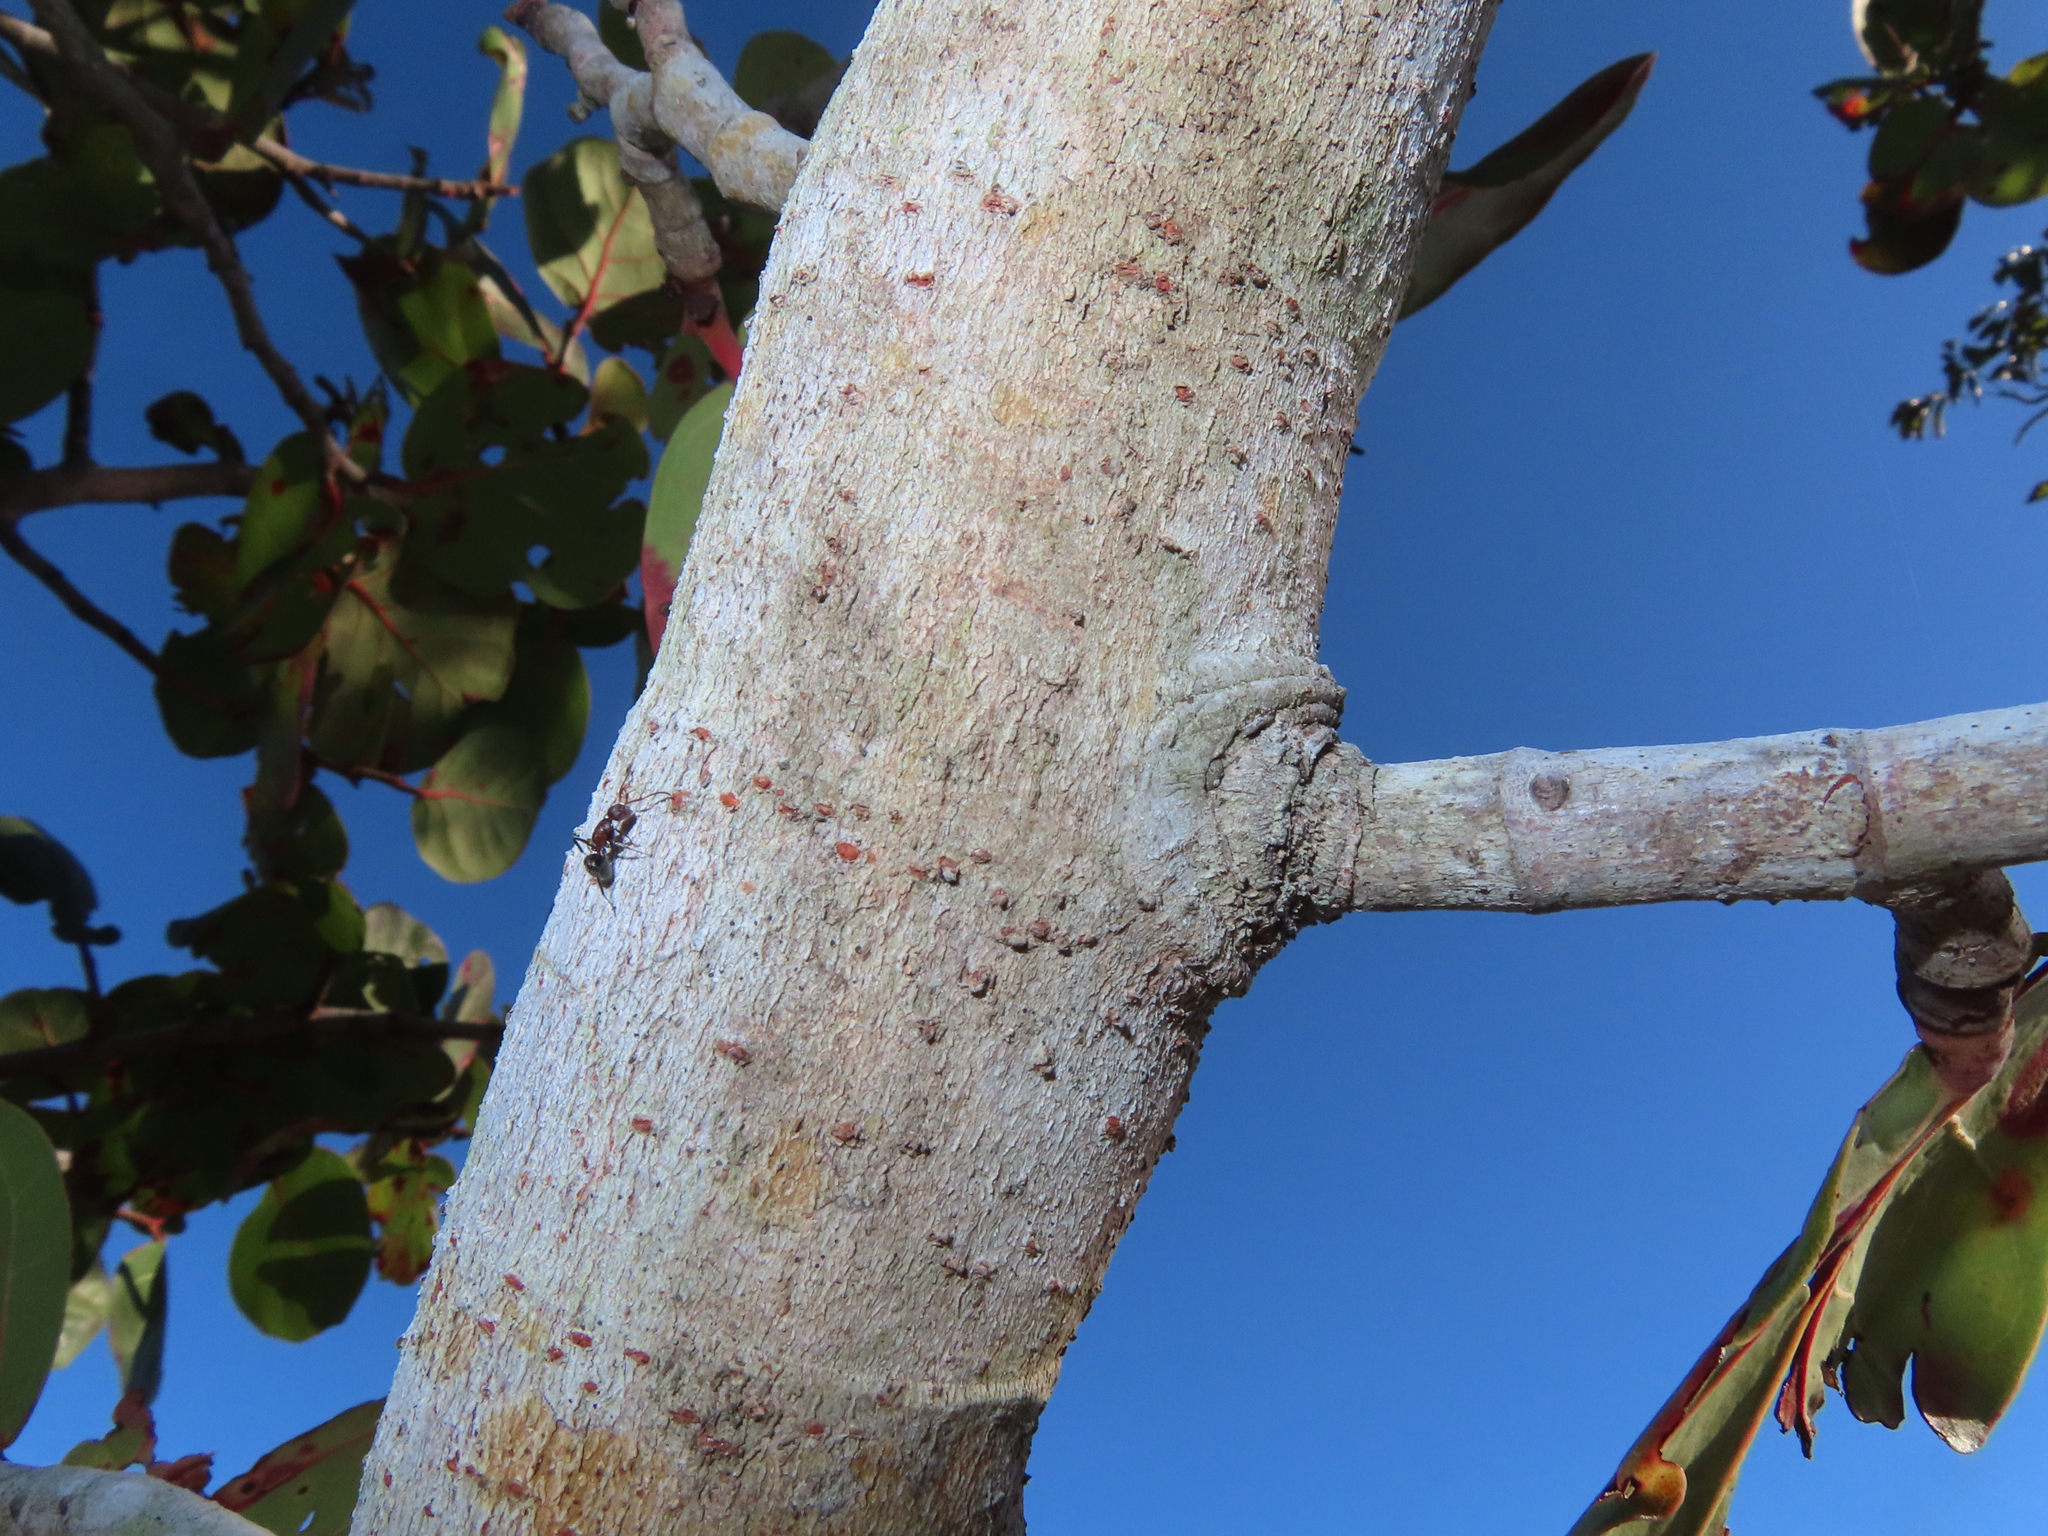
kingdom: Animalia
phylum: Arthropoda
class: Insecta
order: Hymenoptera
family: Formicidae
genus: Camponotus
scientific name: Camponotus planatus
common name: Compact carpenter ant
